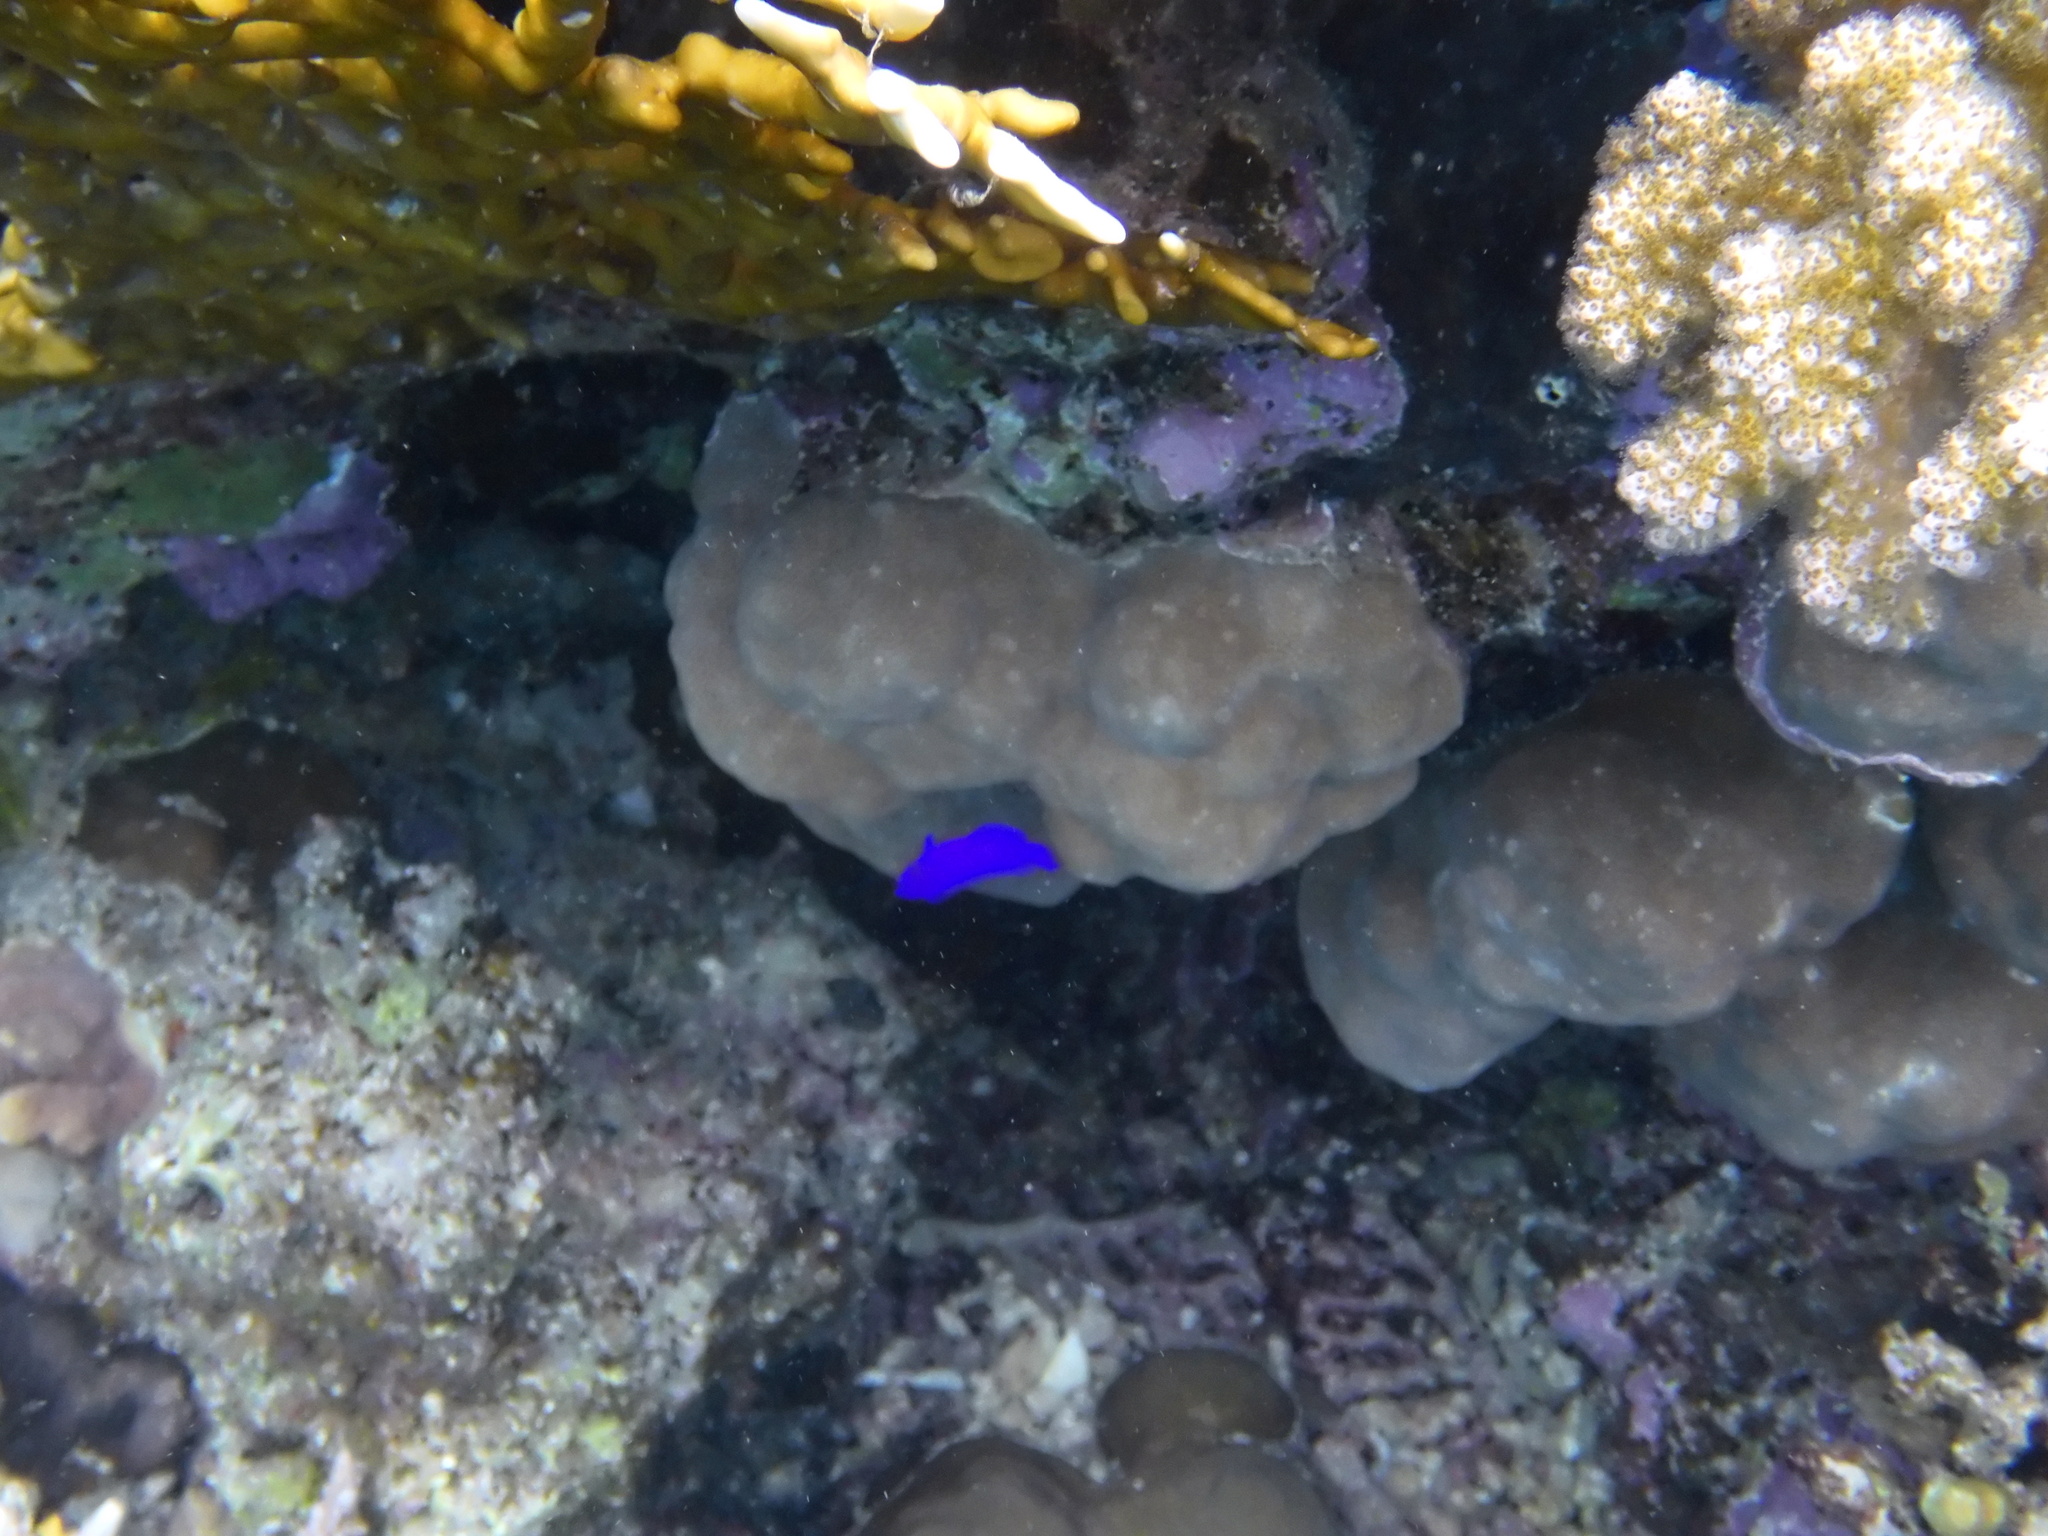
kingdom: Animalia
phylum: Chordata
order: Perciformes
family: Pseudochromidae
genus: Pseudochromis
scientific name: Pseudochromis fridmani
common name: Orchid dottyback
